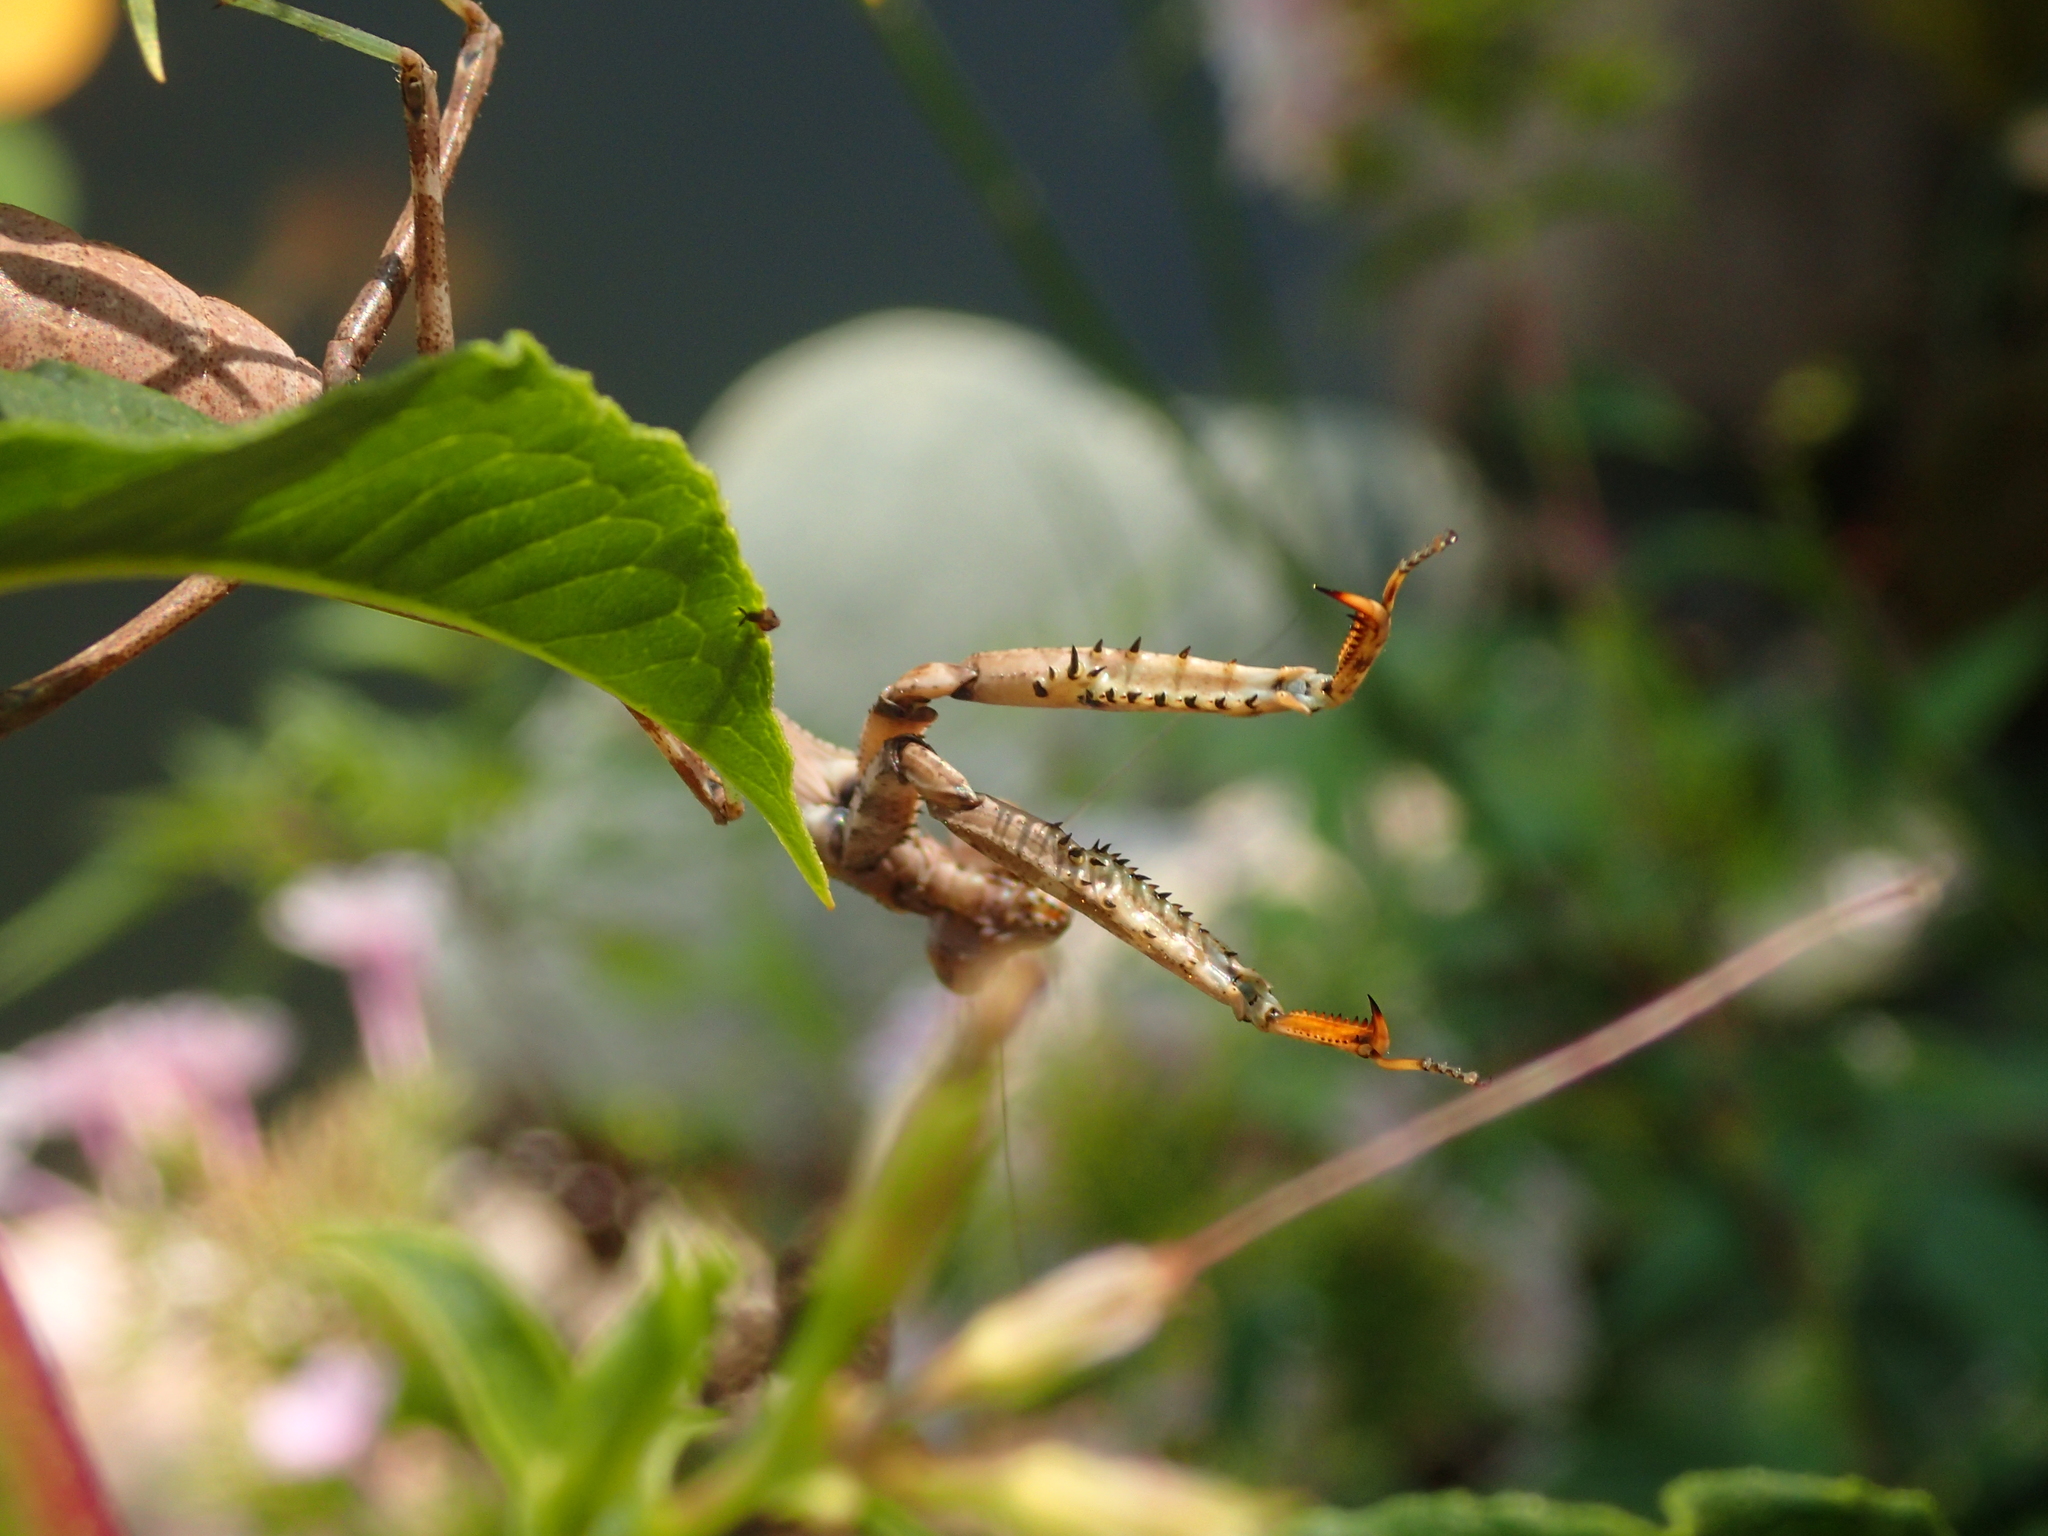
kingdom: Animalia
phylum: Arthropoda
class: Insecta
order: Mantodea
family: Mantidae
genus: Stagmomantis
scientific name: Stagmomantis carolina
